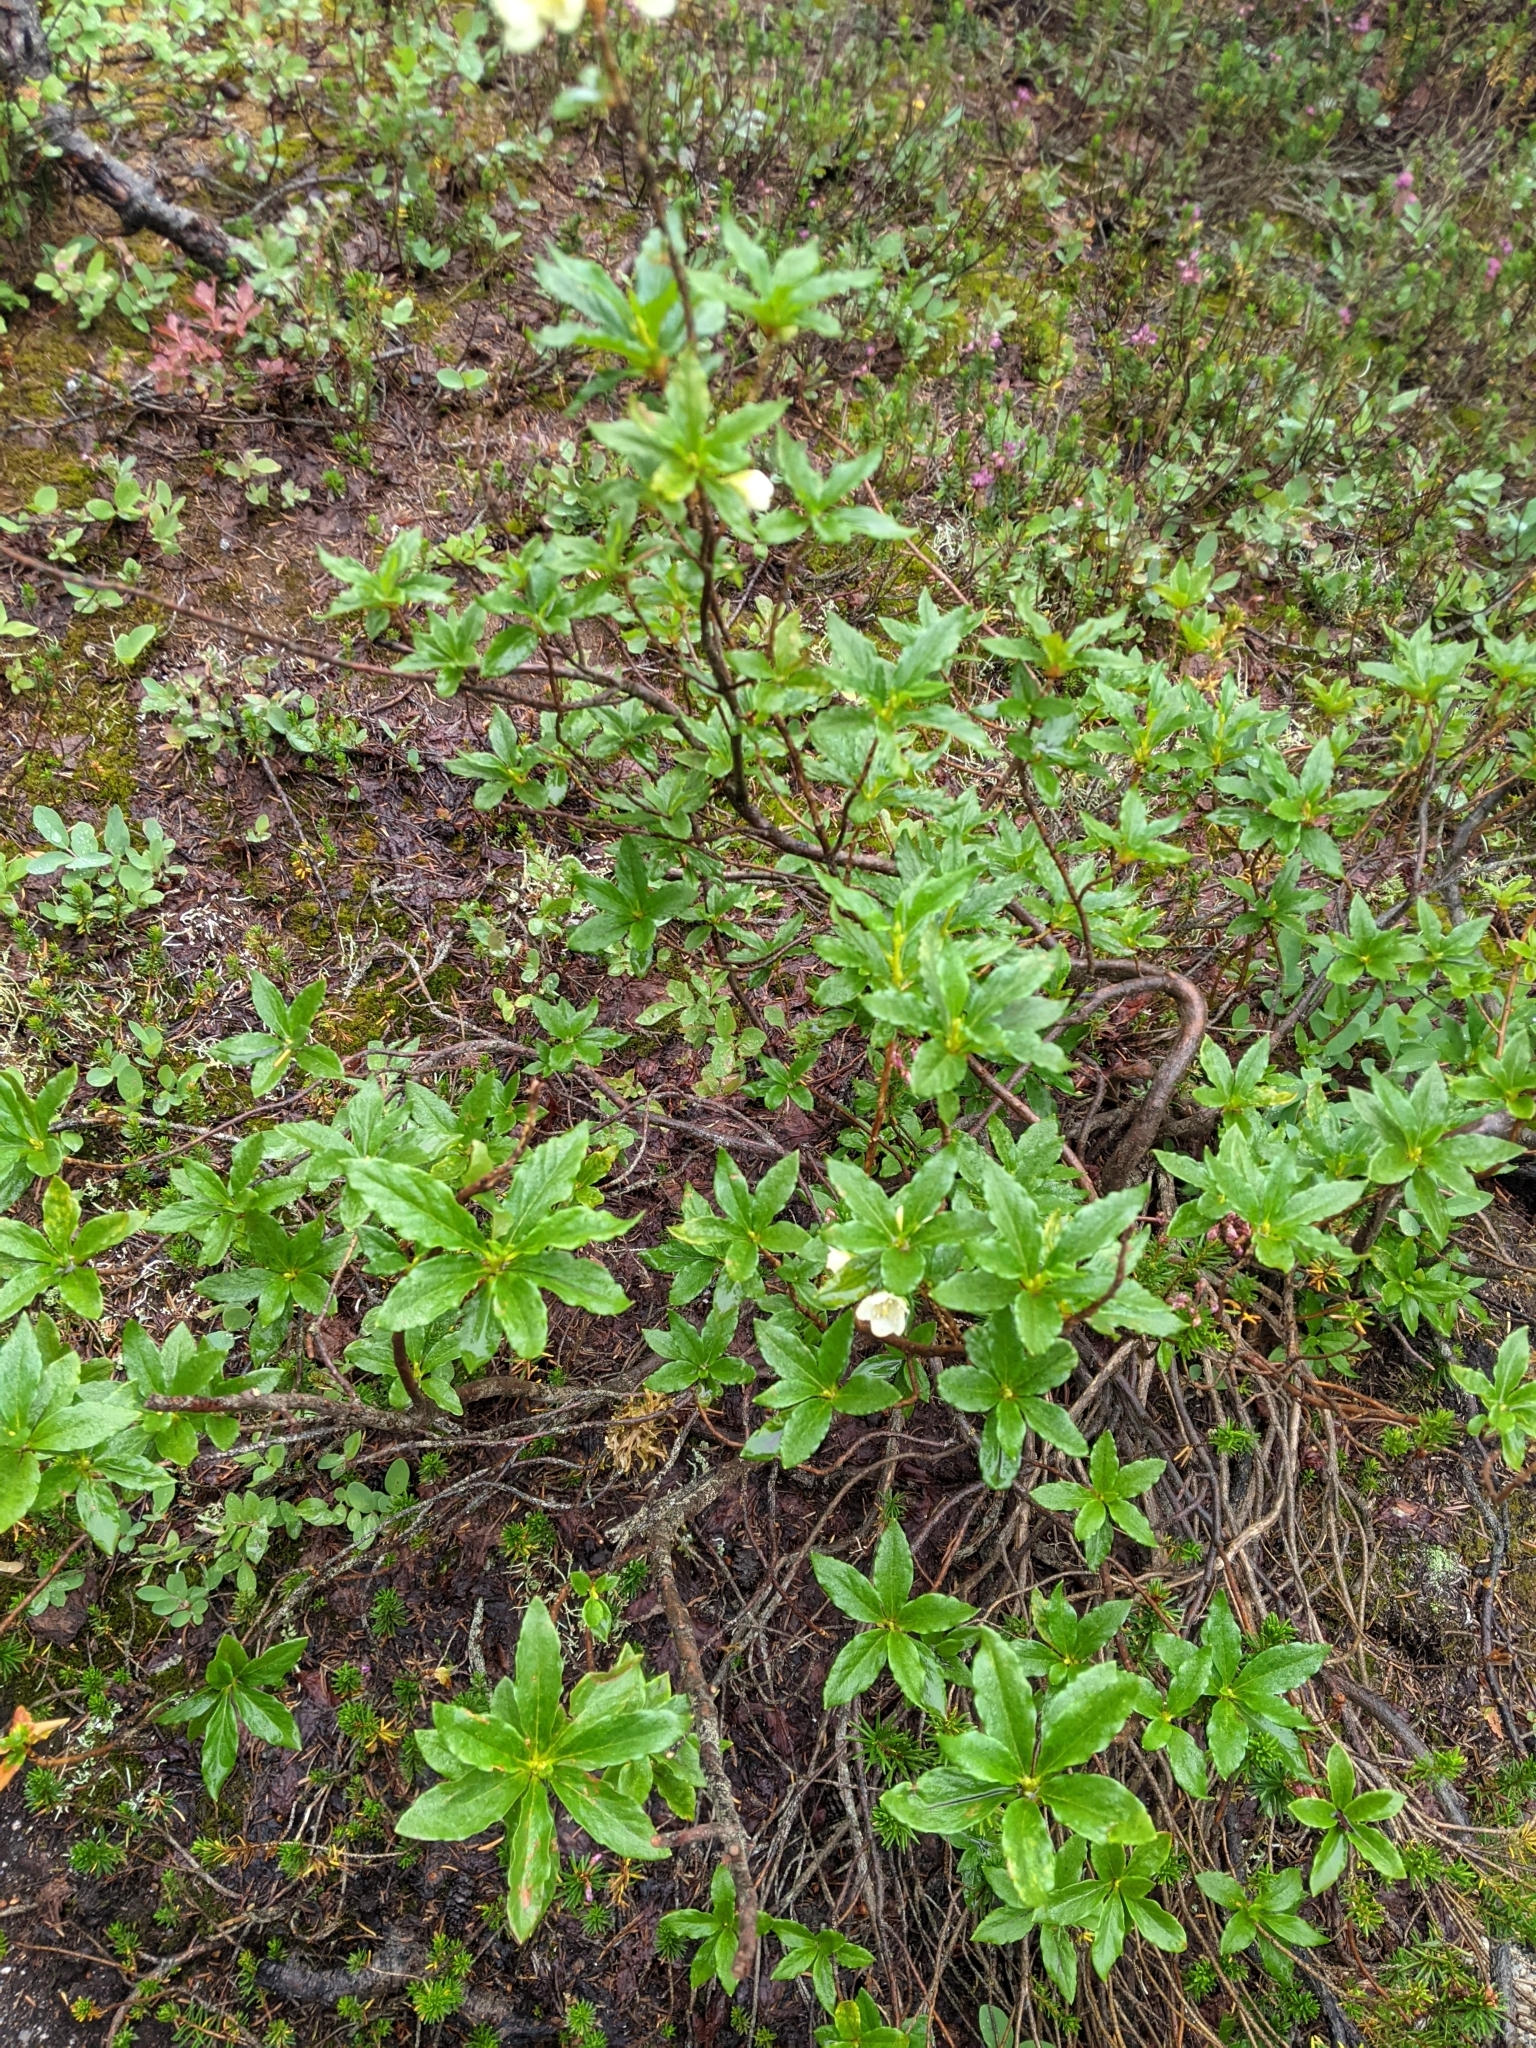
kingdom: Plantae
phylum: Tracheophyta
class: Magnoliopsida
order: Ericales
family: Ericaceae
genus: Rhododendron
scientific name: Rhododendron albiflorum
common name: White rhododendron
